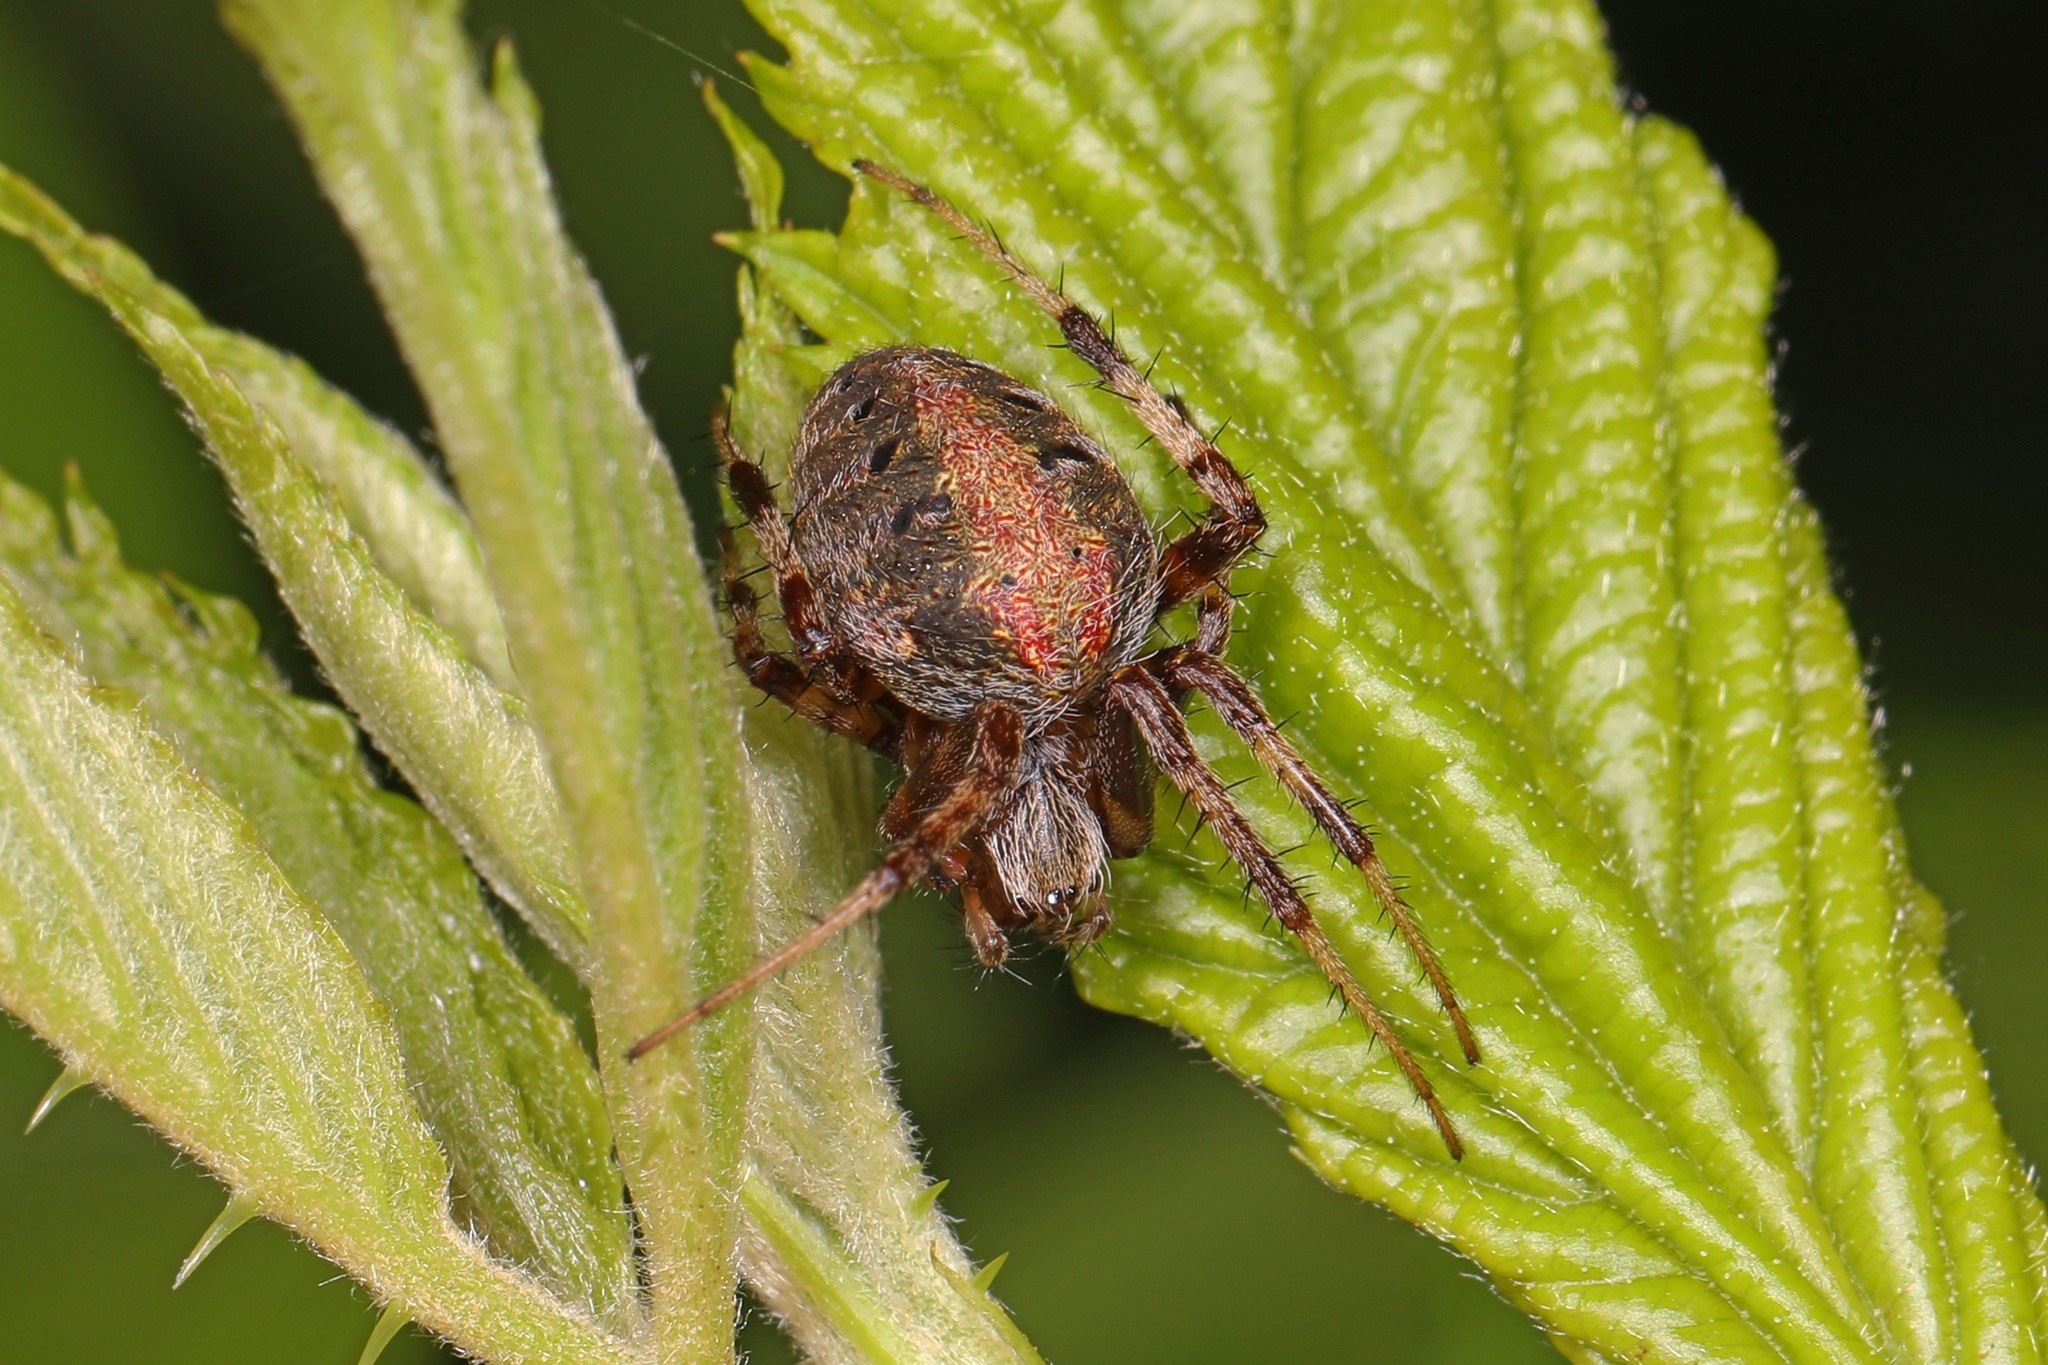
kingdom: Animalia
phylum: Arthropoda
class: Arachnida
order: Araneae
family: Araneidae
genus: Neoscona
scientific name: Neoscona arabesca
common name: Orb weavers
